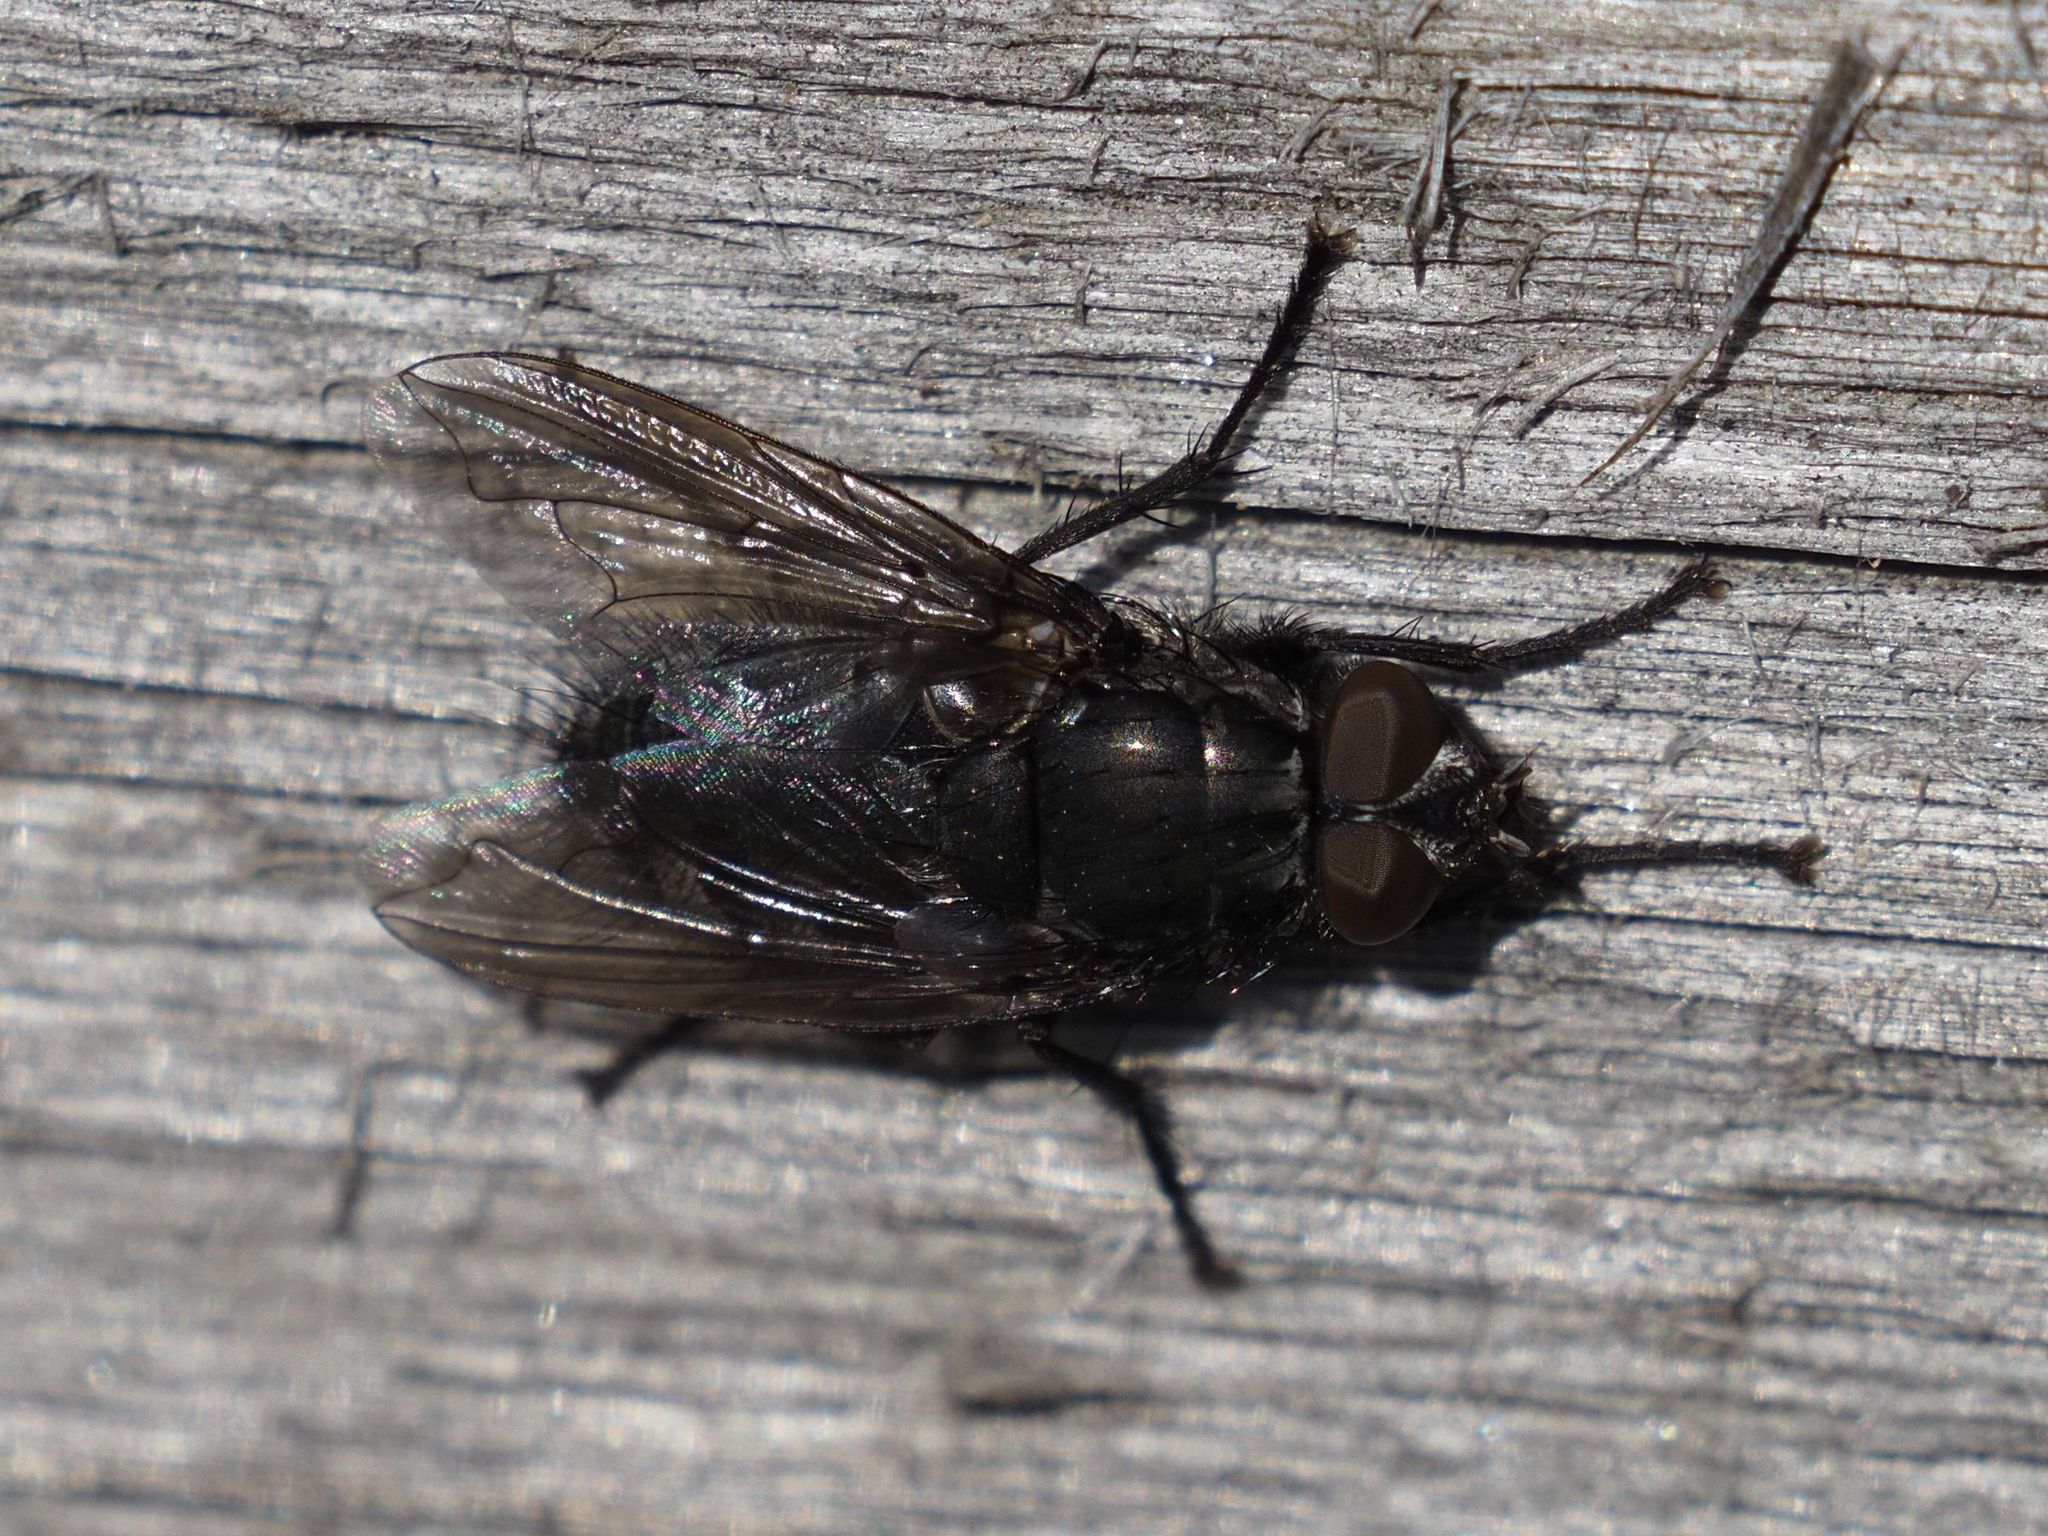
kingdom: Animalia
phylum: Arthropoda
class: Insecta
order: Diptera
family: Polleniidae
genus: Pollenia
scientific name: Pollenia vagabunda
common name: Vagabund cluster fly
